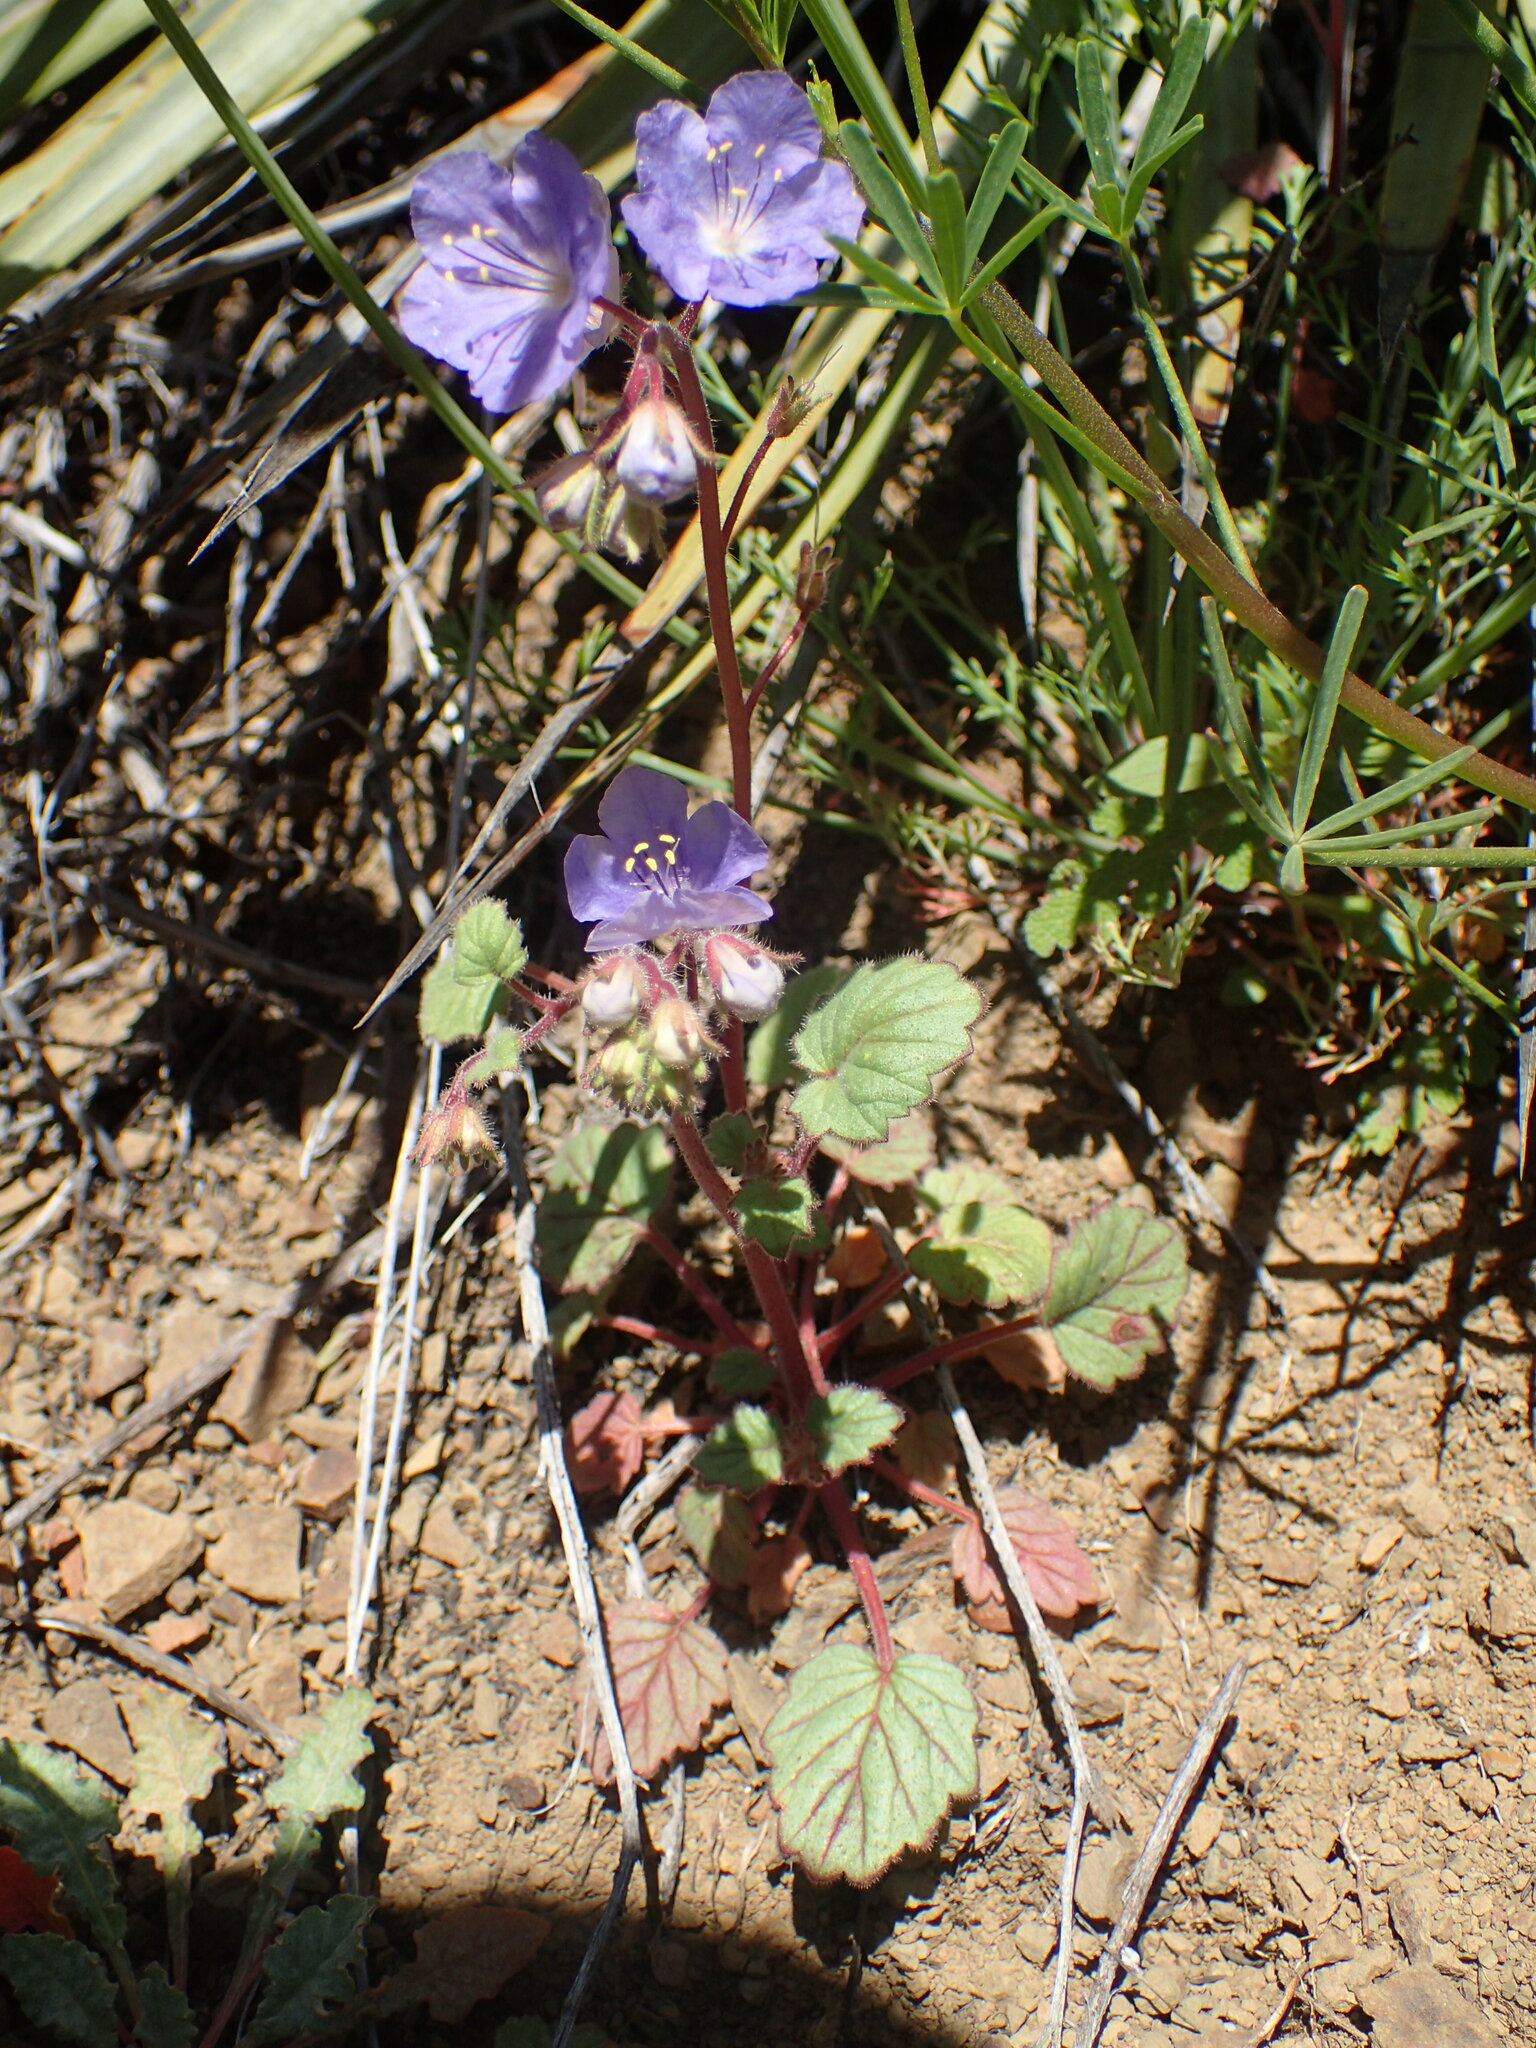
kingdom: Plantae
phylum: Tracheophyta
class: Magnoliopsida
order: Boraginales
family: Hydrophyllaceae
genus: Phacelia
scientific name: Phacelia longipes
